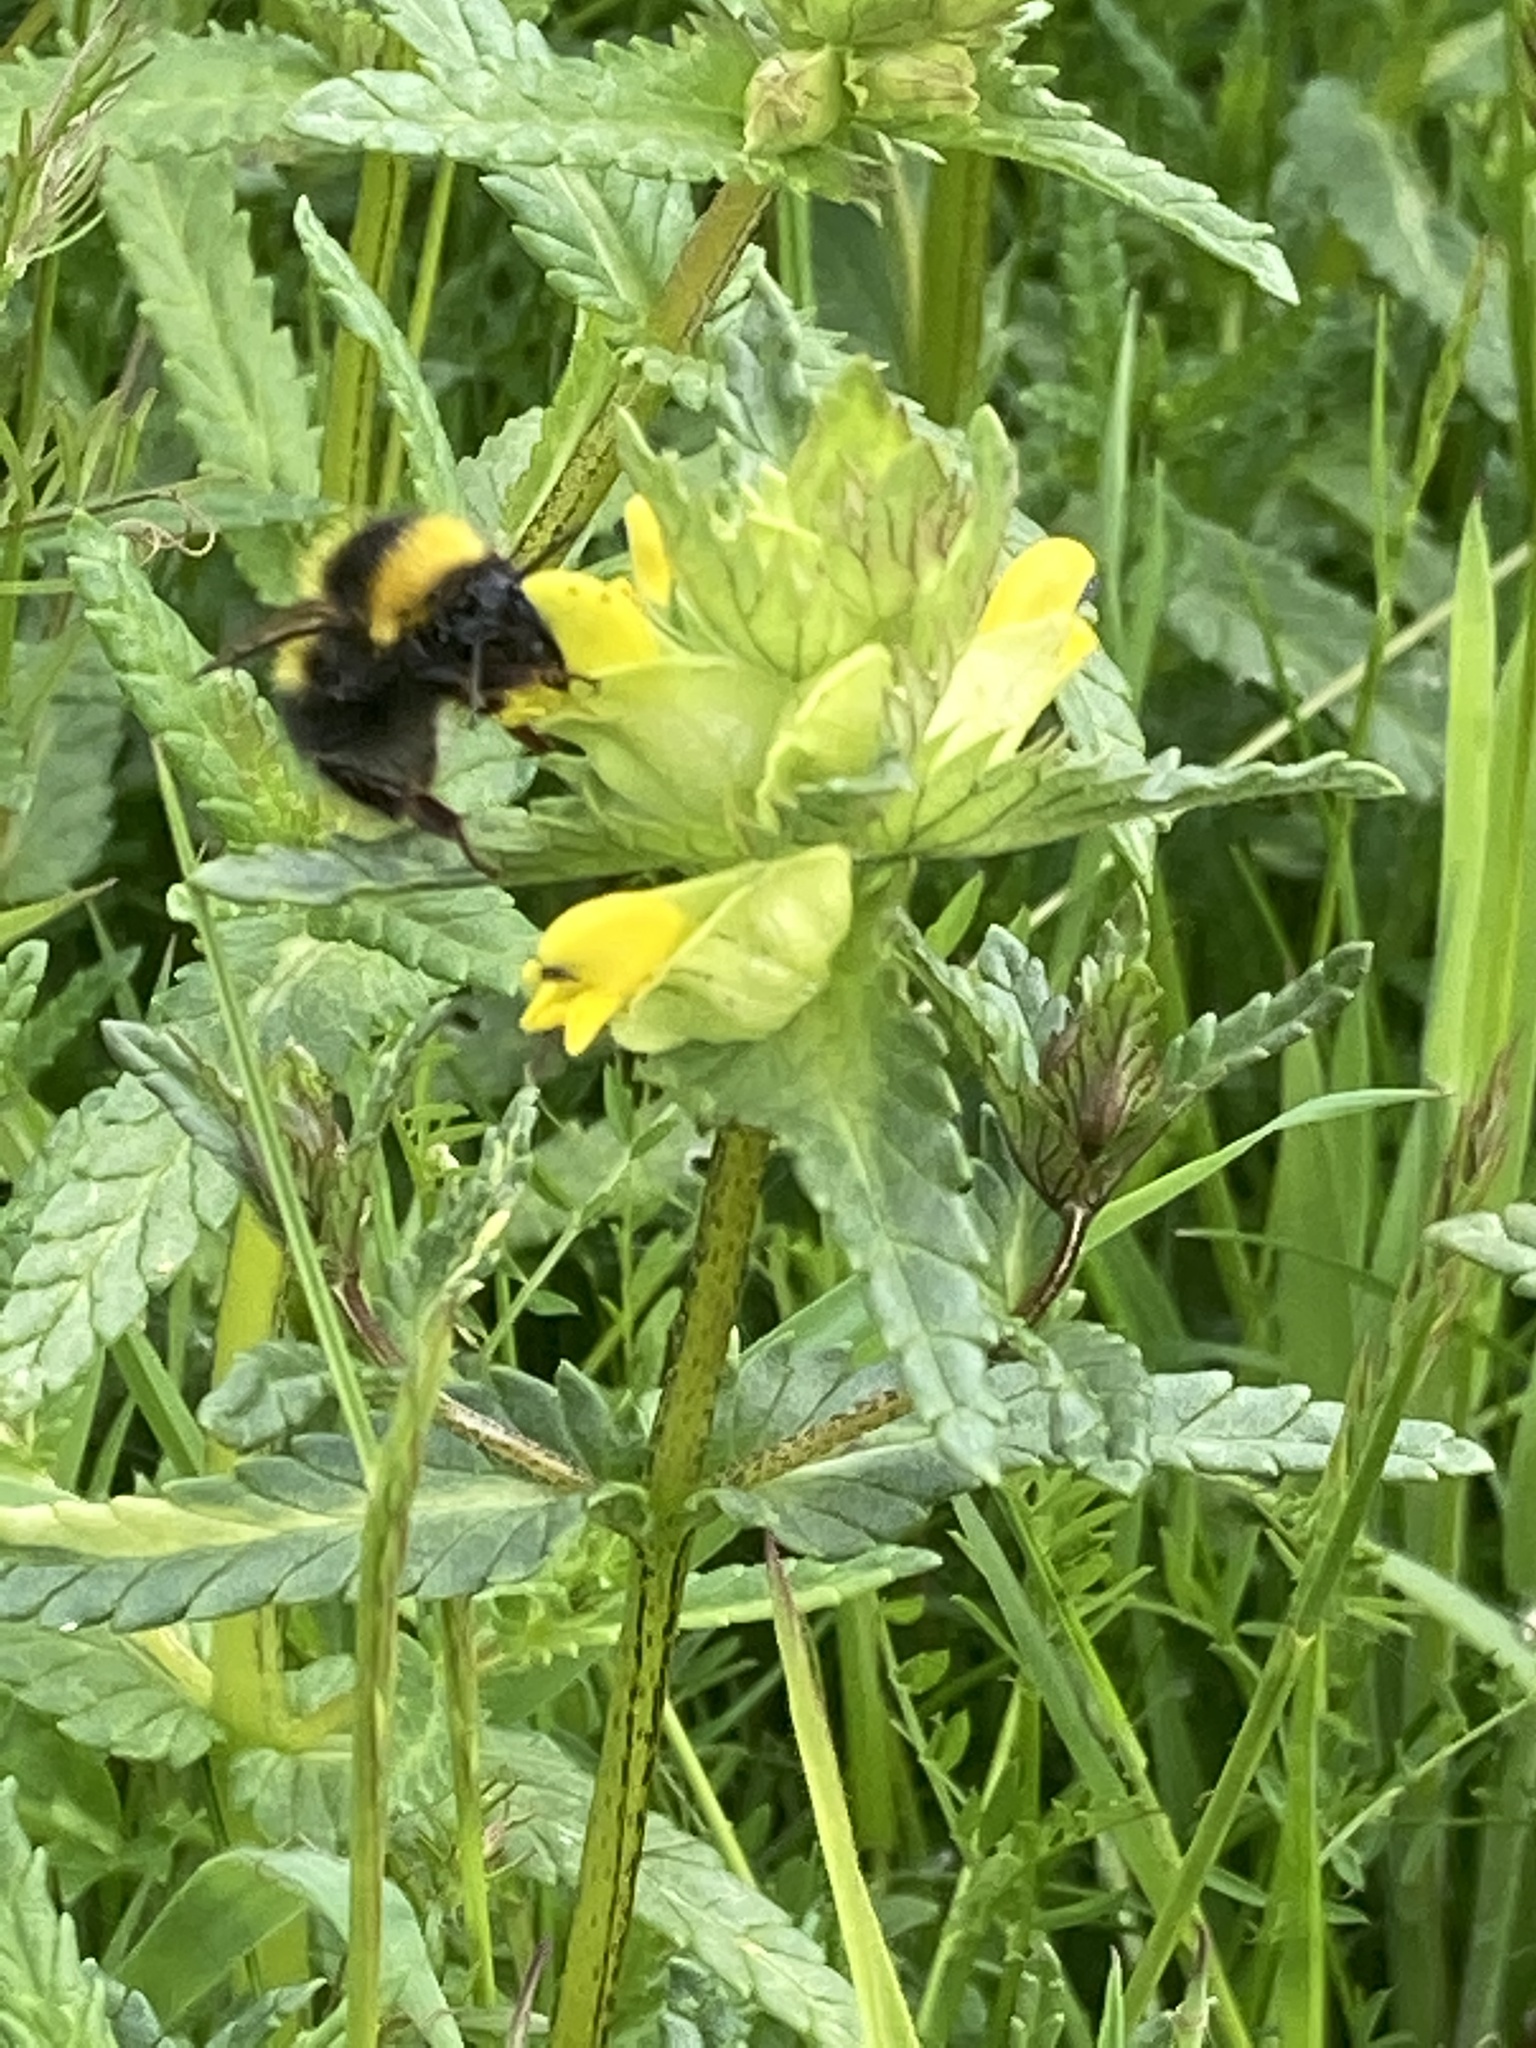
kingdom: Plantae
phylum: Tracheophyta
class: Magnoliopsida
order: Lamiales
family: Orobanchaceae
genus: Rhinanthus
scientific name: Rhinanthus minor
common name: Yellow-rattle
